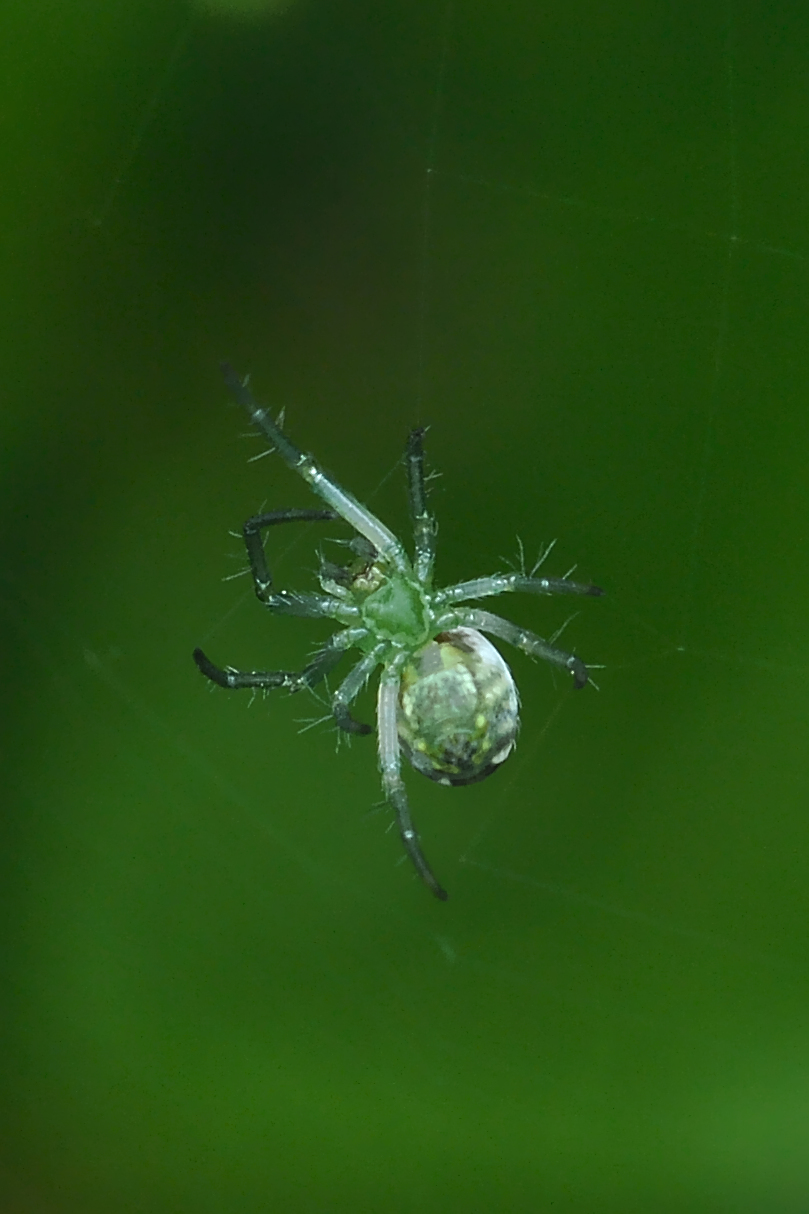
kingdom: Animalia
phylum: Arthropoda
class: Arachnida
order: Araneae
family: Araneidae
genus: Mangora
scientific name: Mangora maculata
